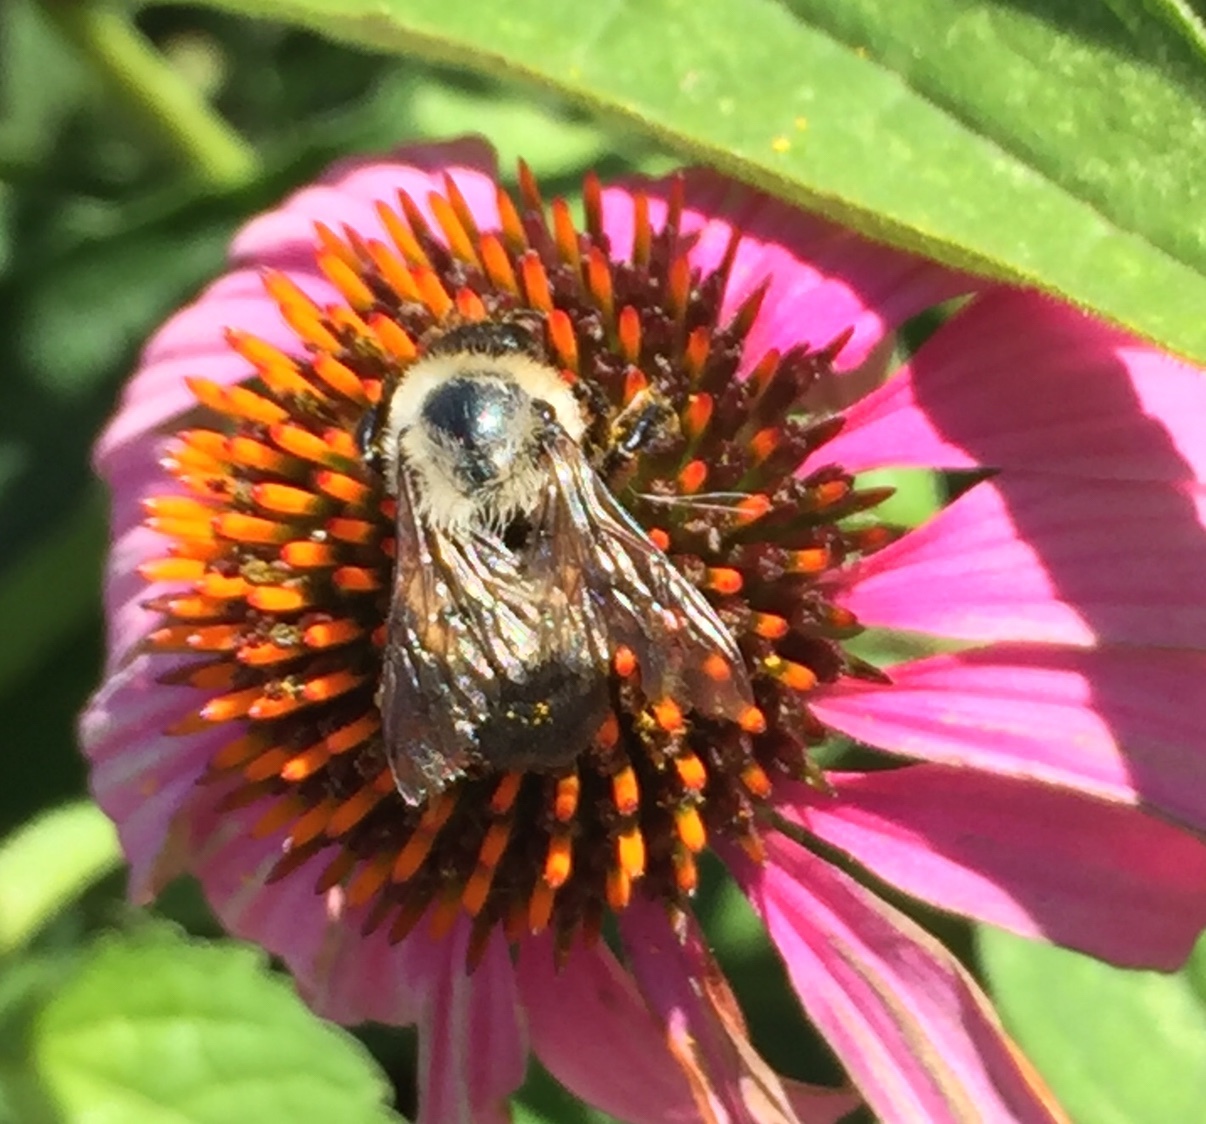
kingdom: Animalia
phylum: Arthropoda
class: Insecta
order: Hymenoptera
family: Apidae
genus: Bombus
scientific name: Bombus griseocollis
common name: Brown-belted bumble bee
